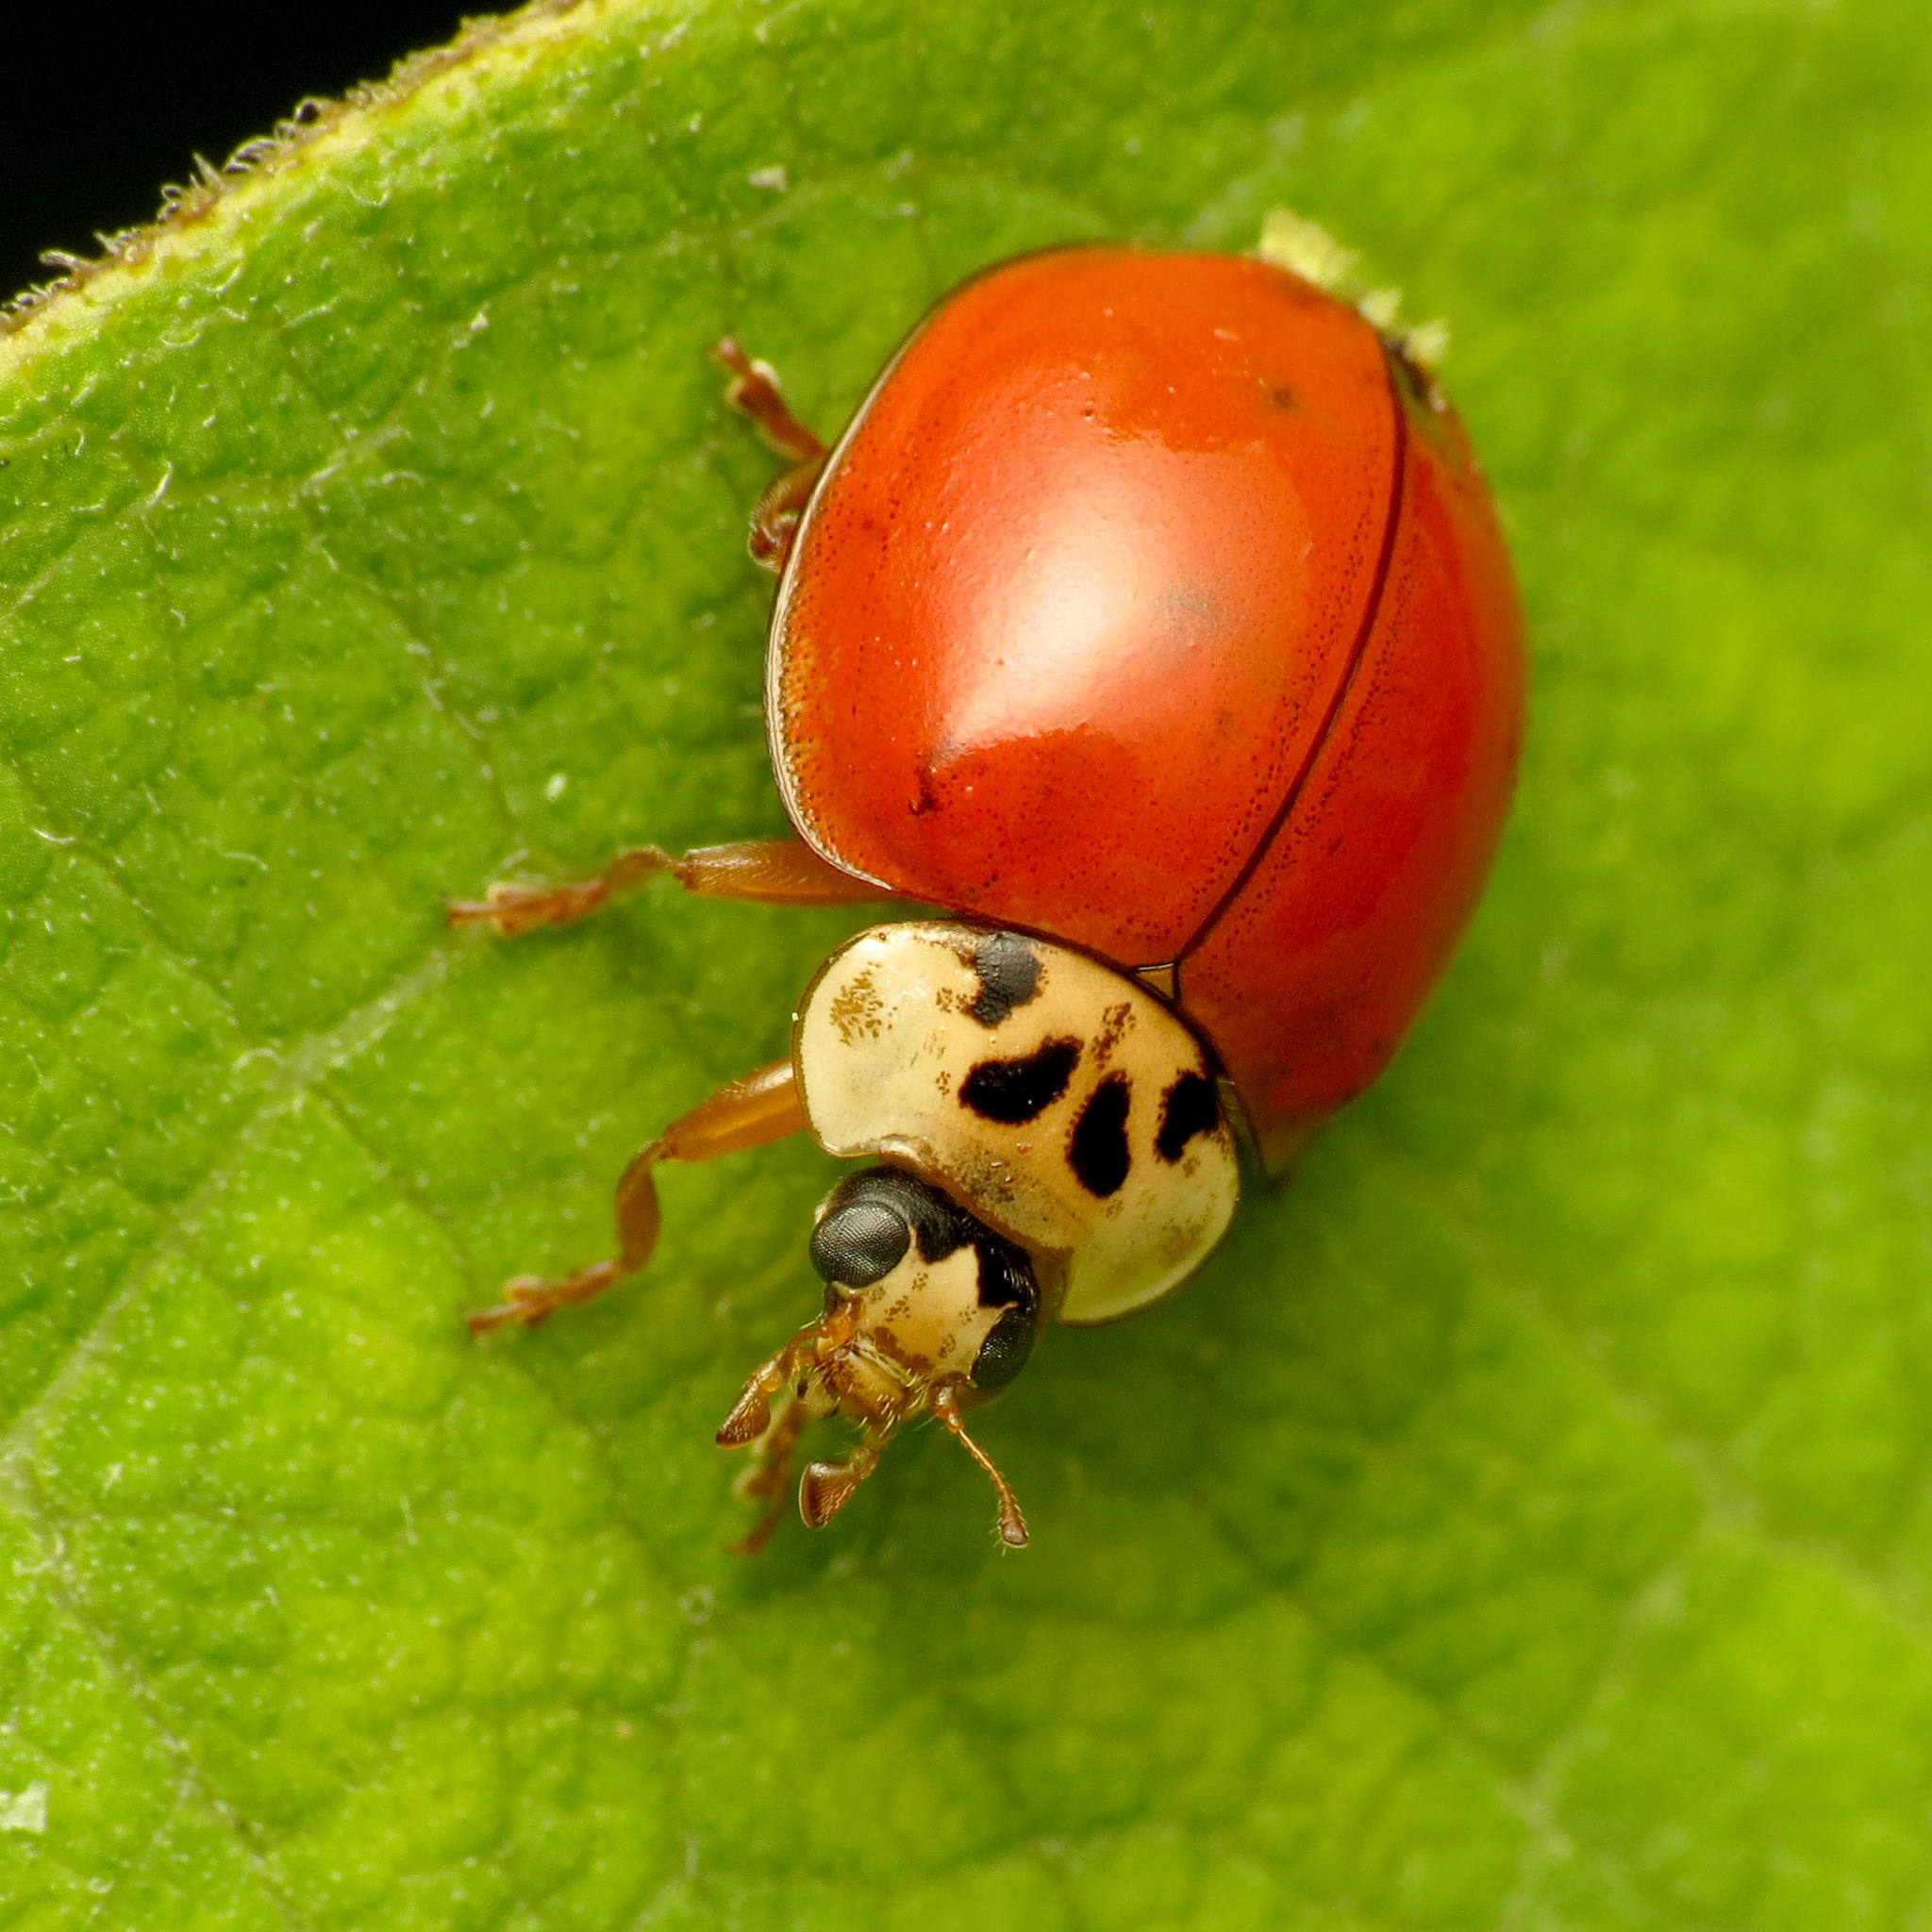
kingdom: Animalia
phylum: Arthropoda
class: Insecta
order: Coleoptera
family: Coccinellidae
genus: Harmonia
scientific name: Harmonia axyridis
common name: Harlequin ladybird
